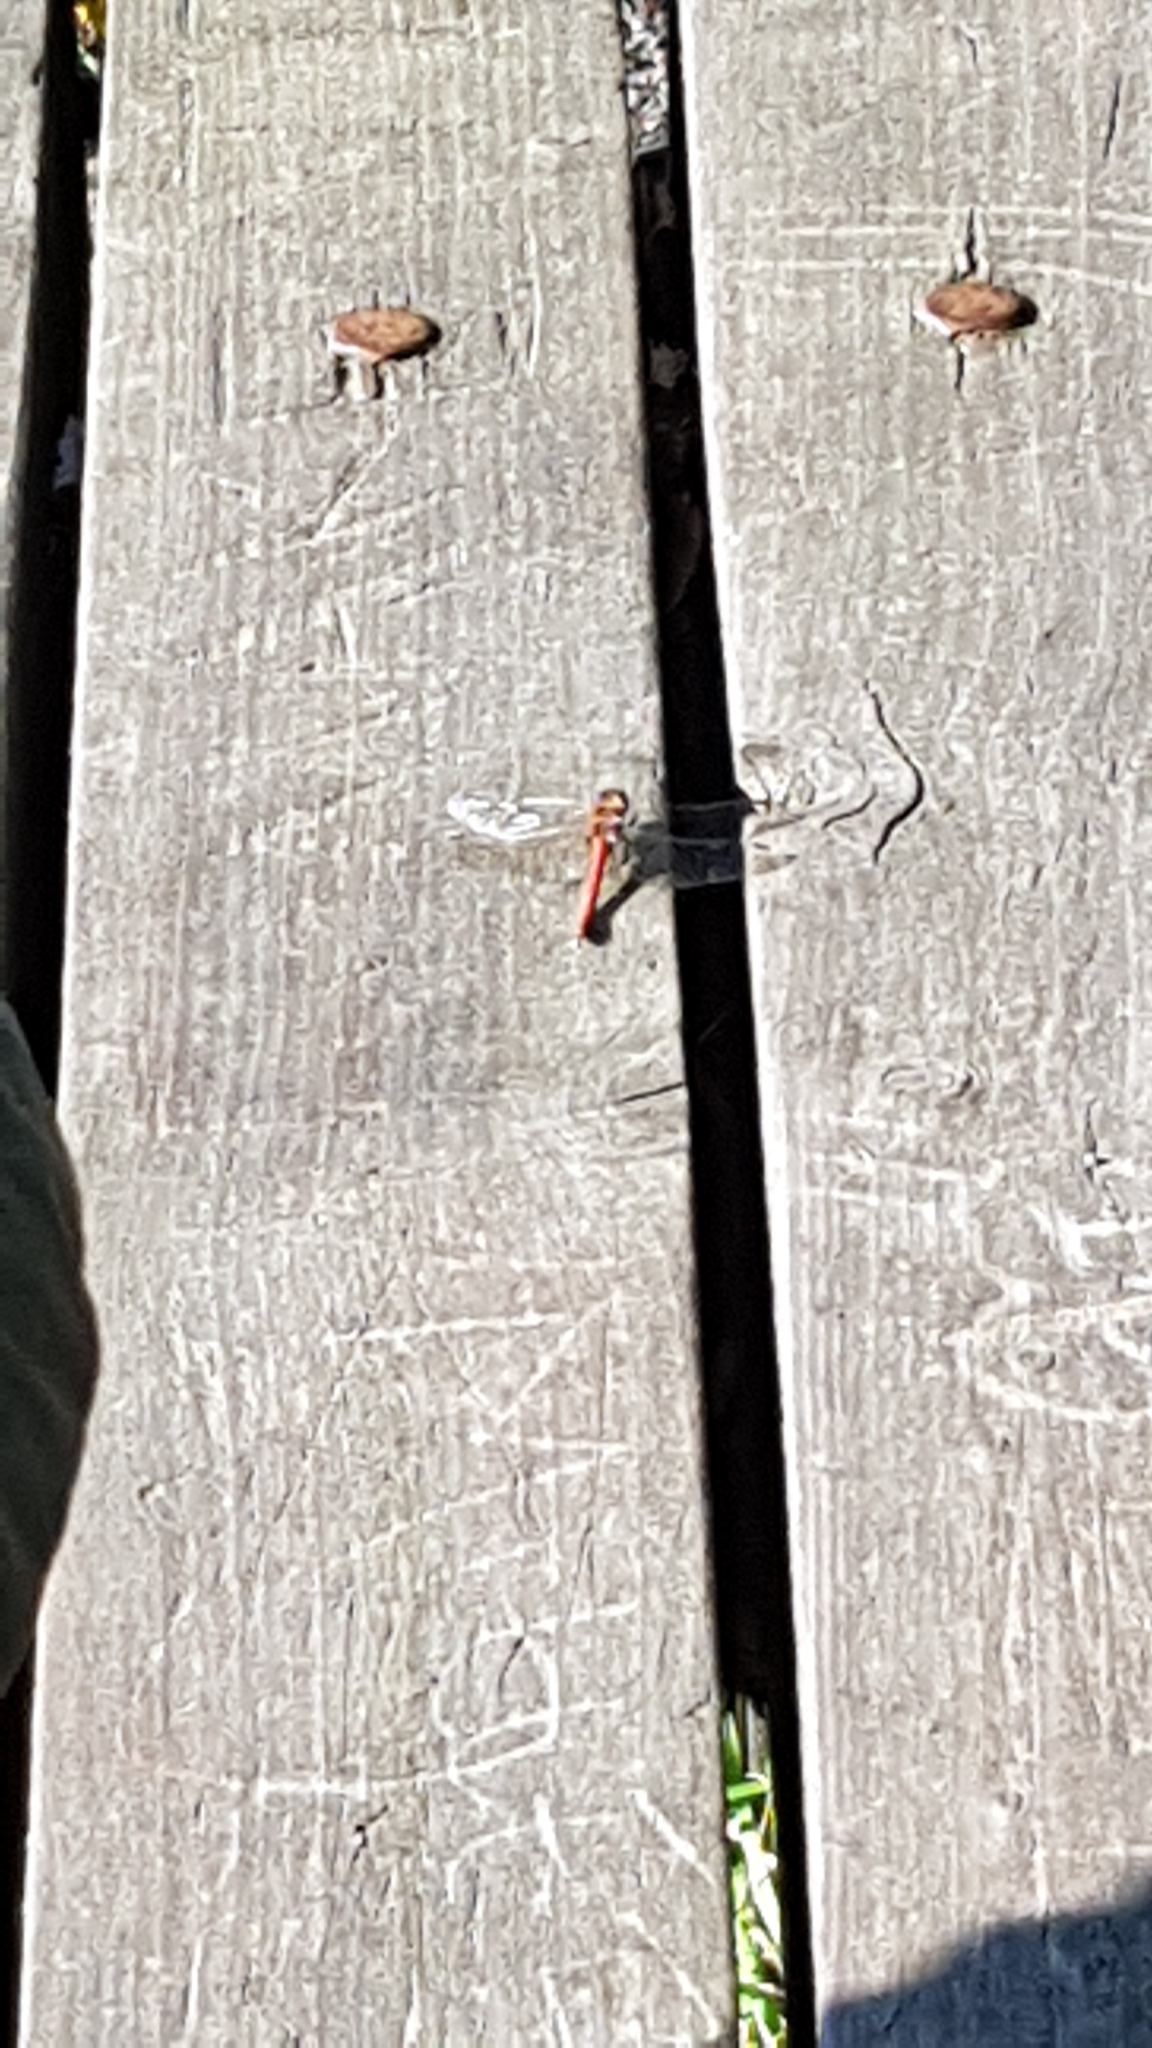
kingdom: Animalia
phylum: Arthropoda
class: Insecta
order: Odonata
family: Libellulidae
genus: Sympetrum
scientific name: Sympetrum striolatum
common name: Common darter
